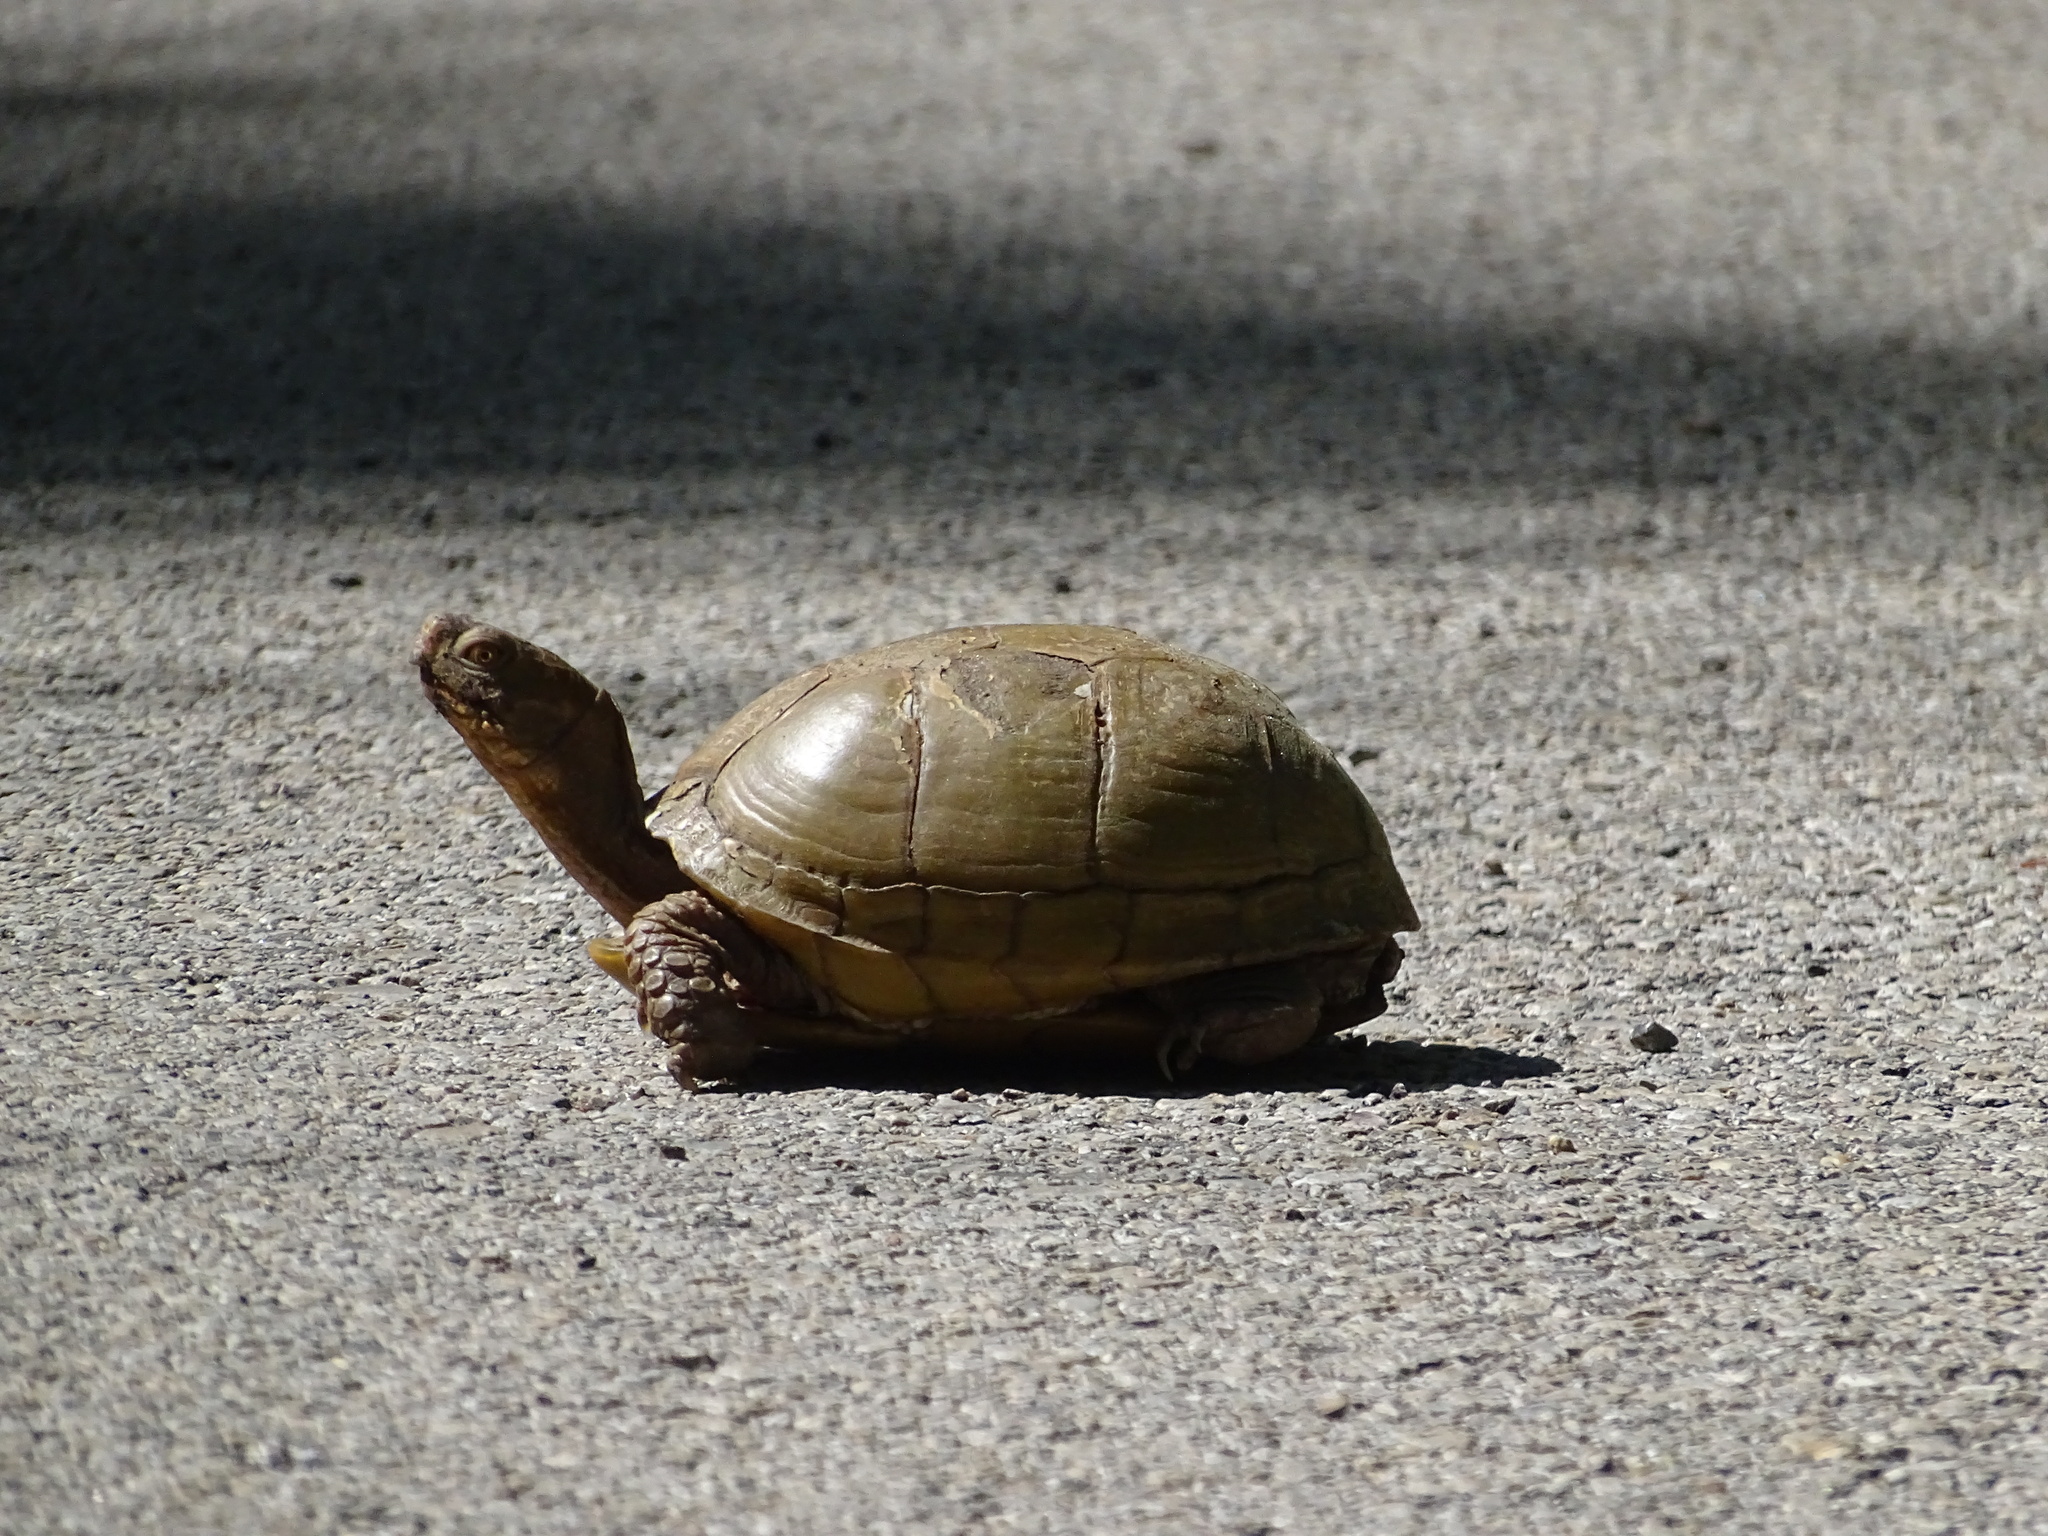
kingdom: Animalia
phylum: Chordata
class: Testudines
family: Emydidae
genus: Terrapene
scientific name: Terrapene carolina
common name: Common box turtle
